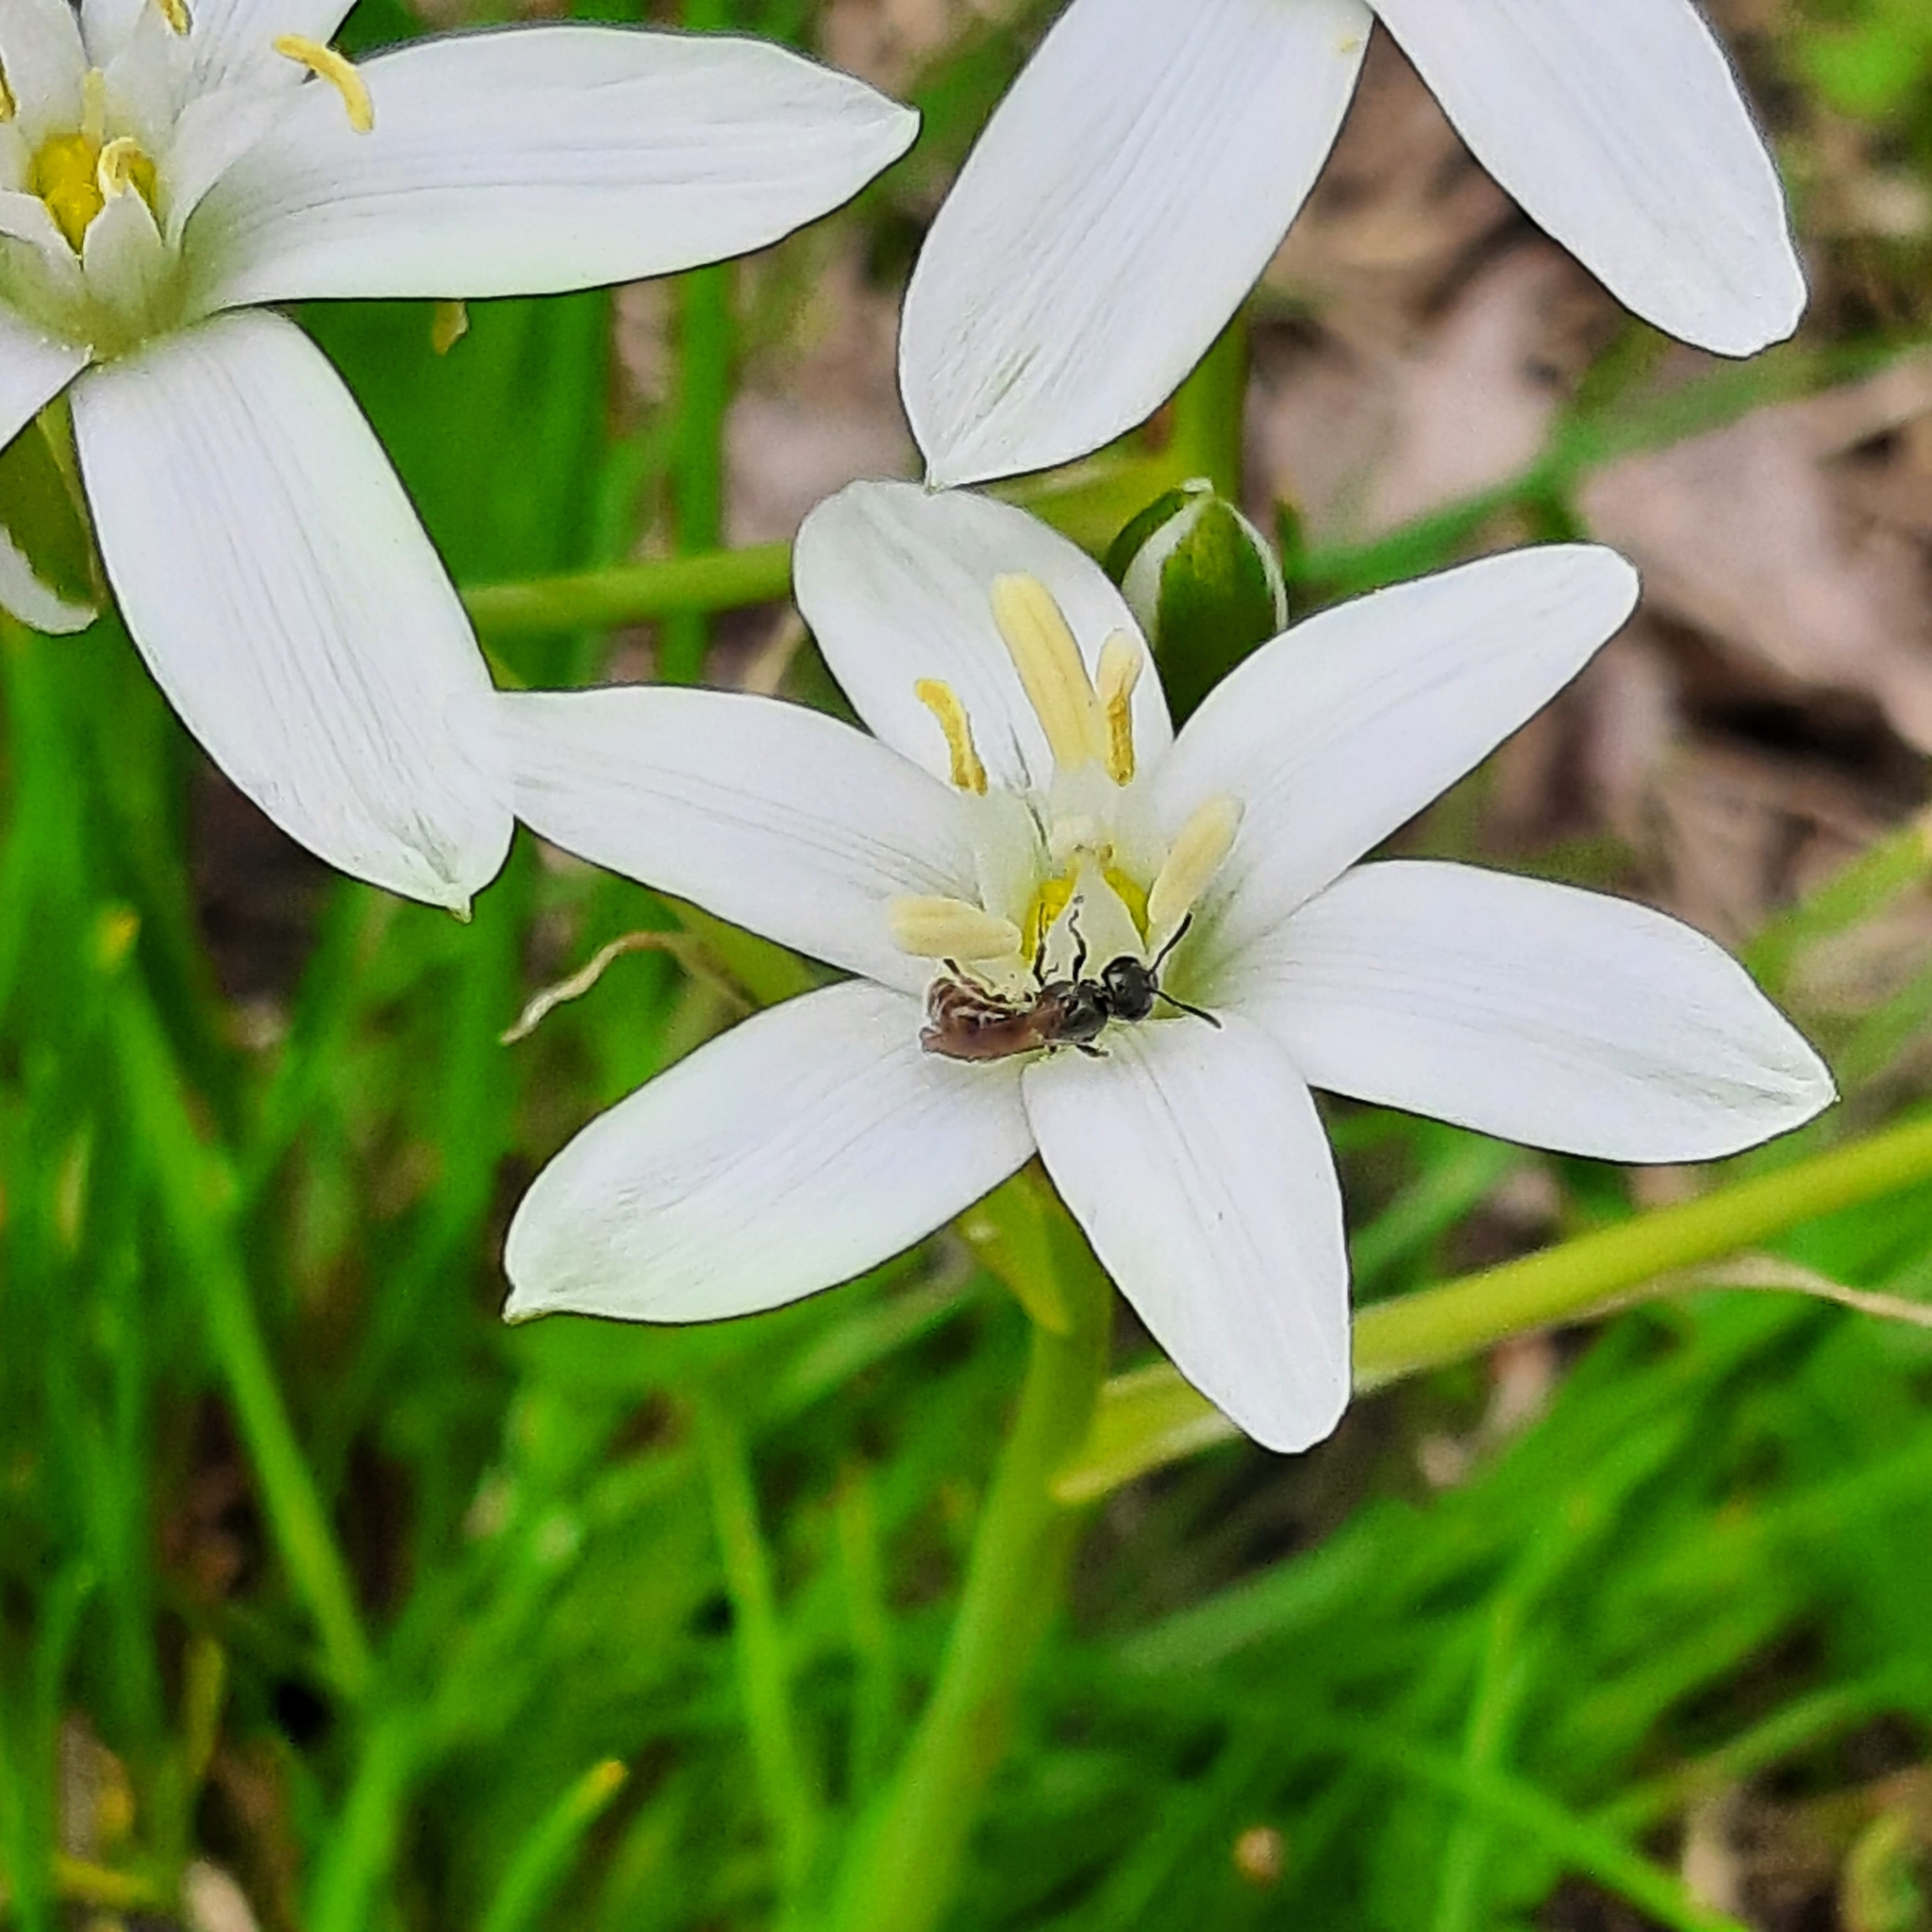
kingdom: Animalia
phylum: Arthropoda
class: Insecta
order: Hymenoptera
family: Halictidae
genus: Lasioglossum
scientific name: Lasioglossum
